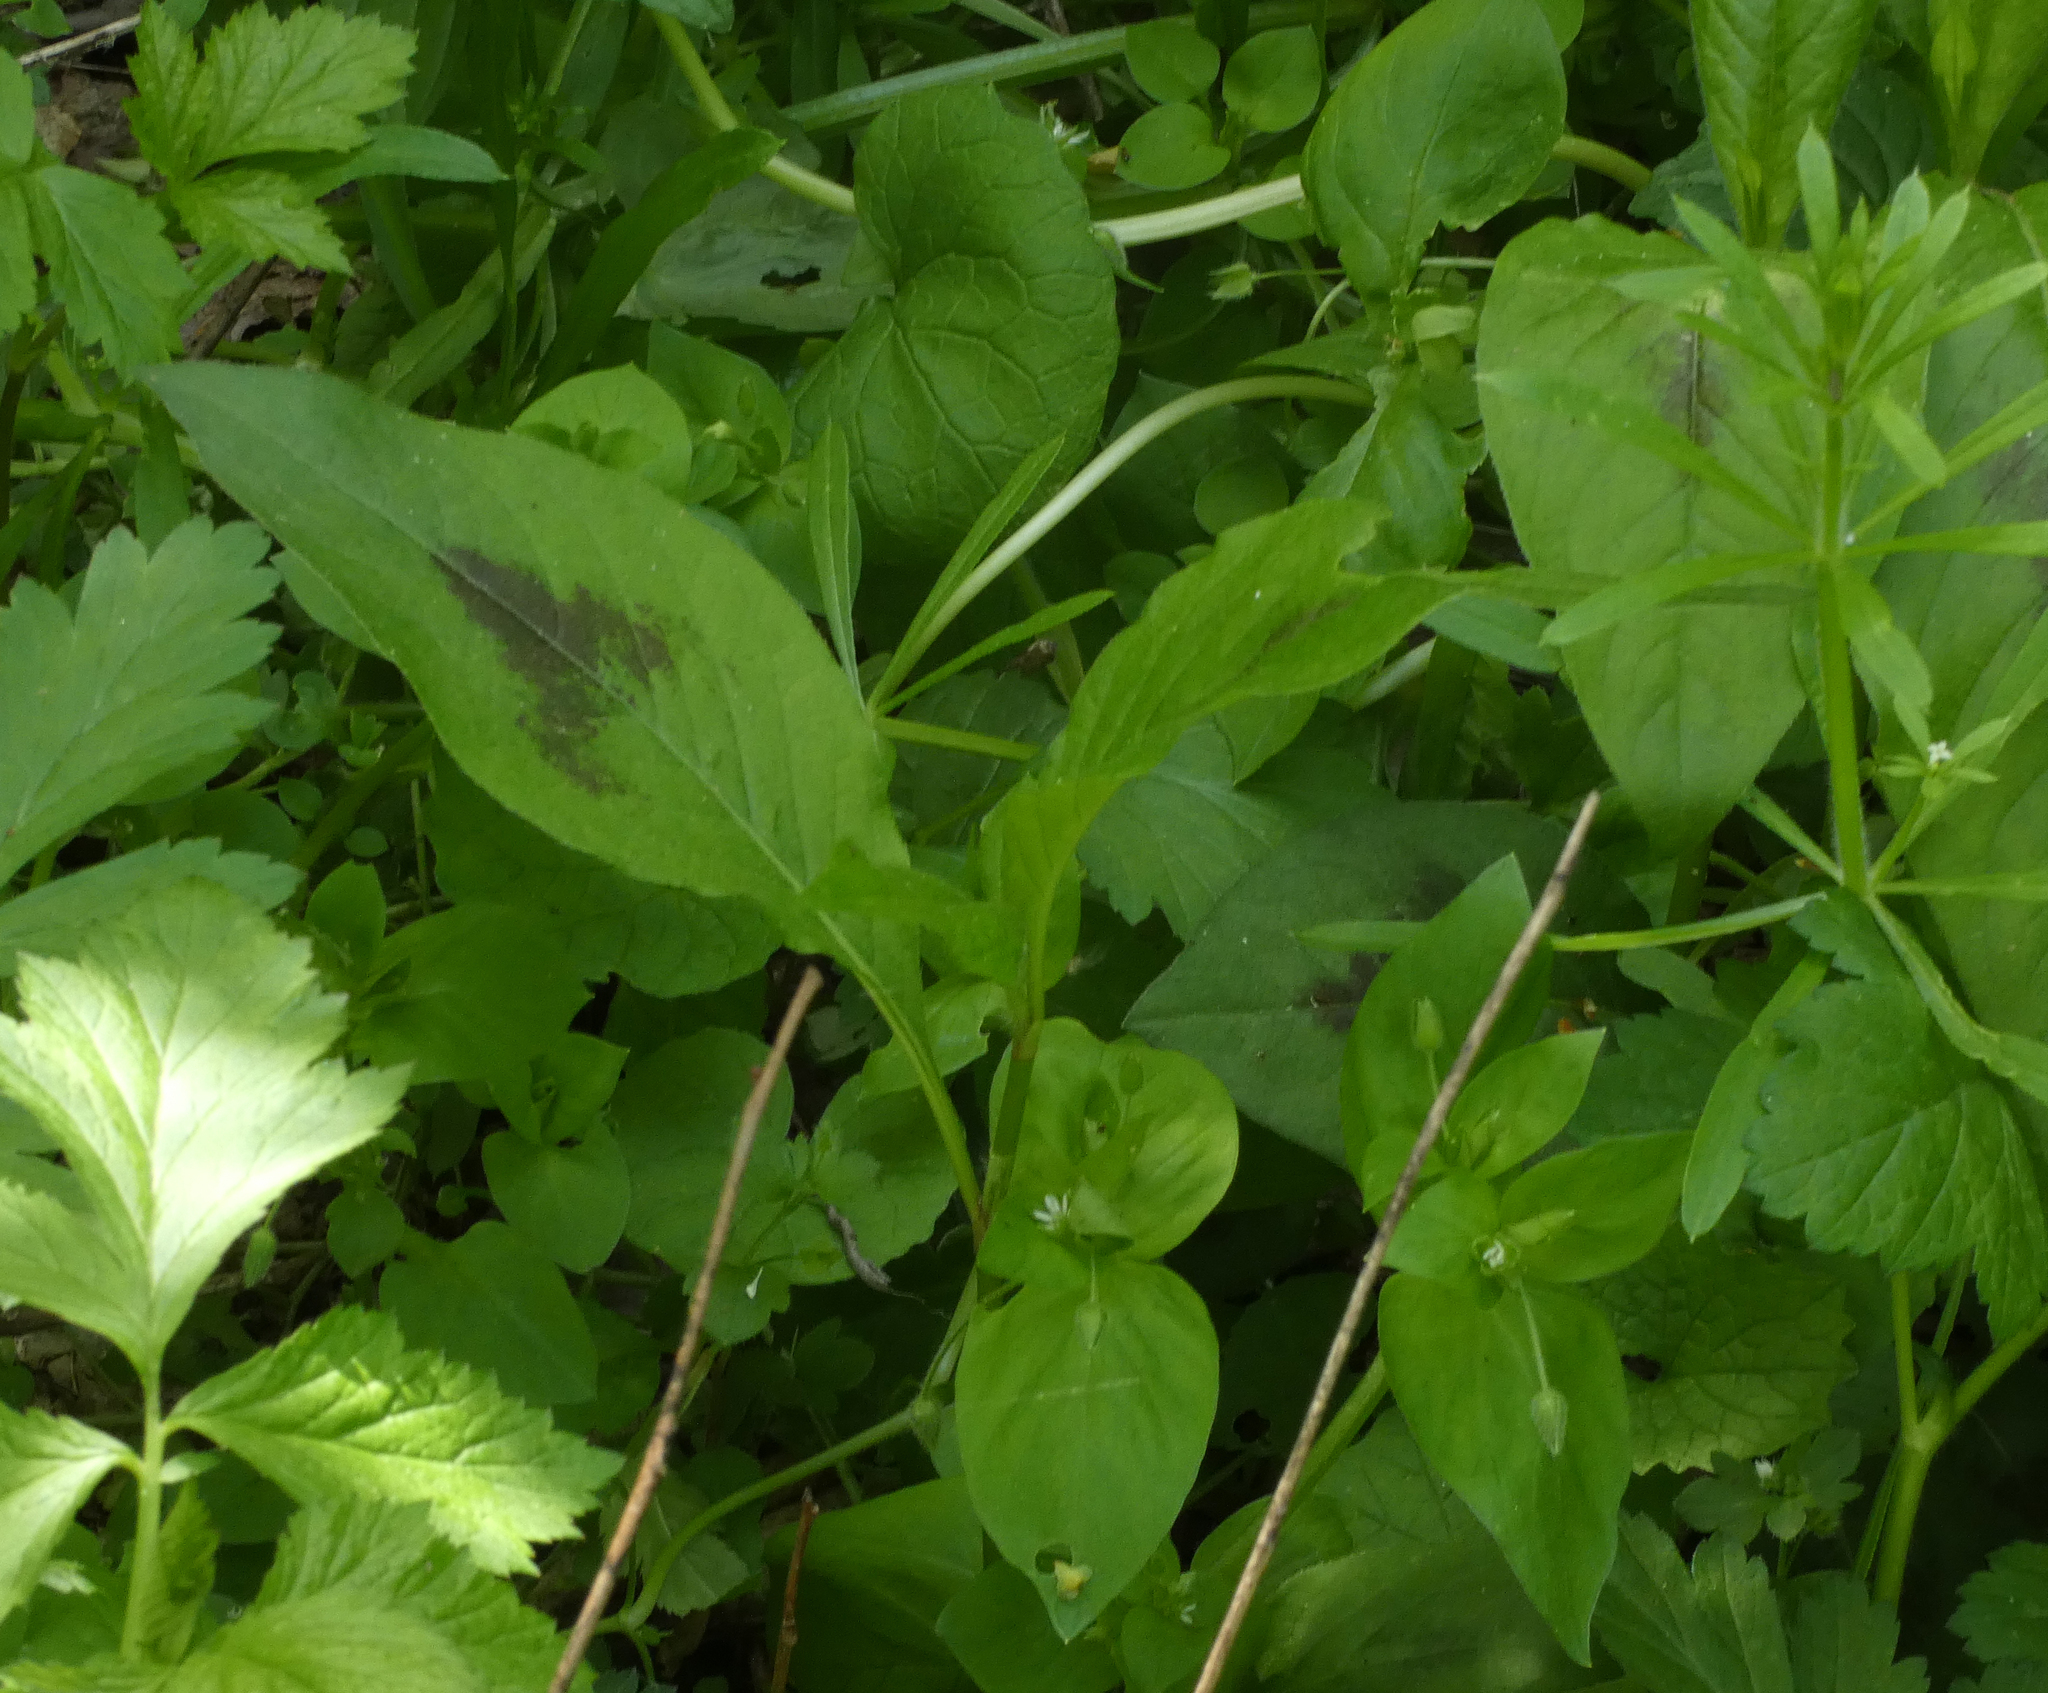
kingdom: Plantae
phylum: Tracheophyta
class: Magnoliopsida
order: Caryophyllales
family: Polygonaceae
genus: Persicaria
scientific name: Persicaria virginiana
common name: Jumpseed
